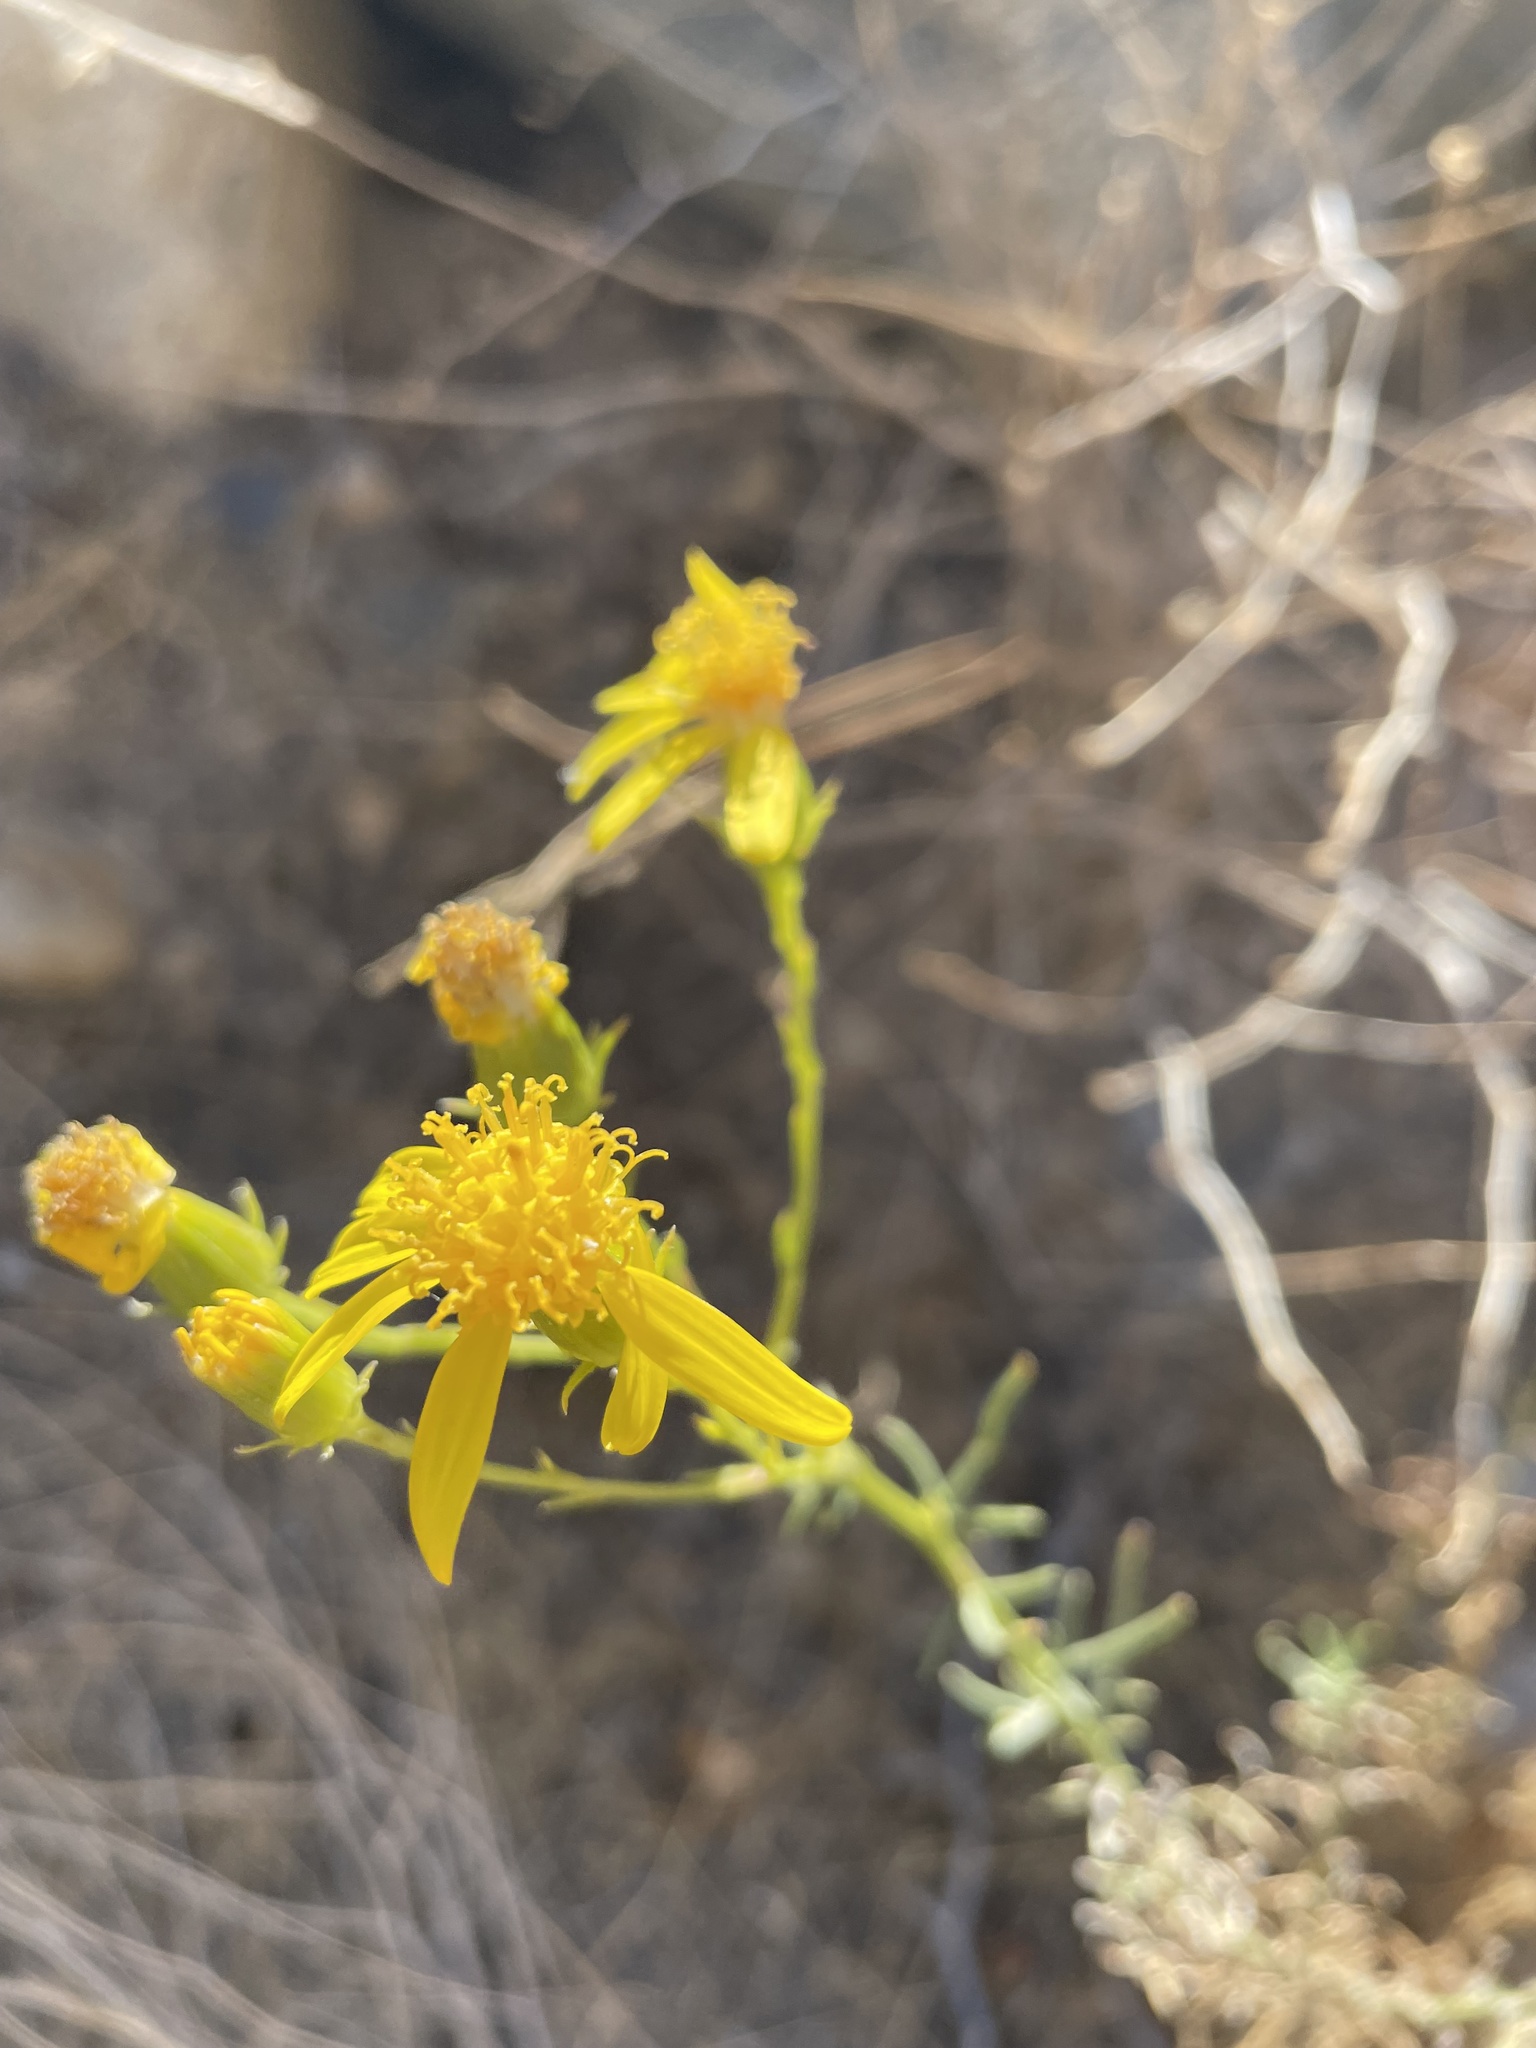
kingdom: Plantae
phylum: Tracheophyta
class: Magnoliopsida
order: Asterales
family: Asteraceae
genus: Senecio
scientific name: Senecio flaccidus
